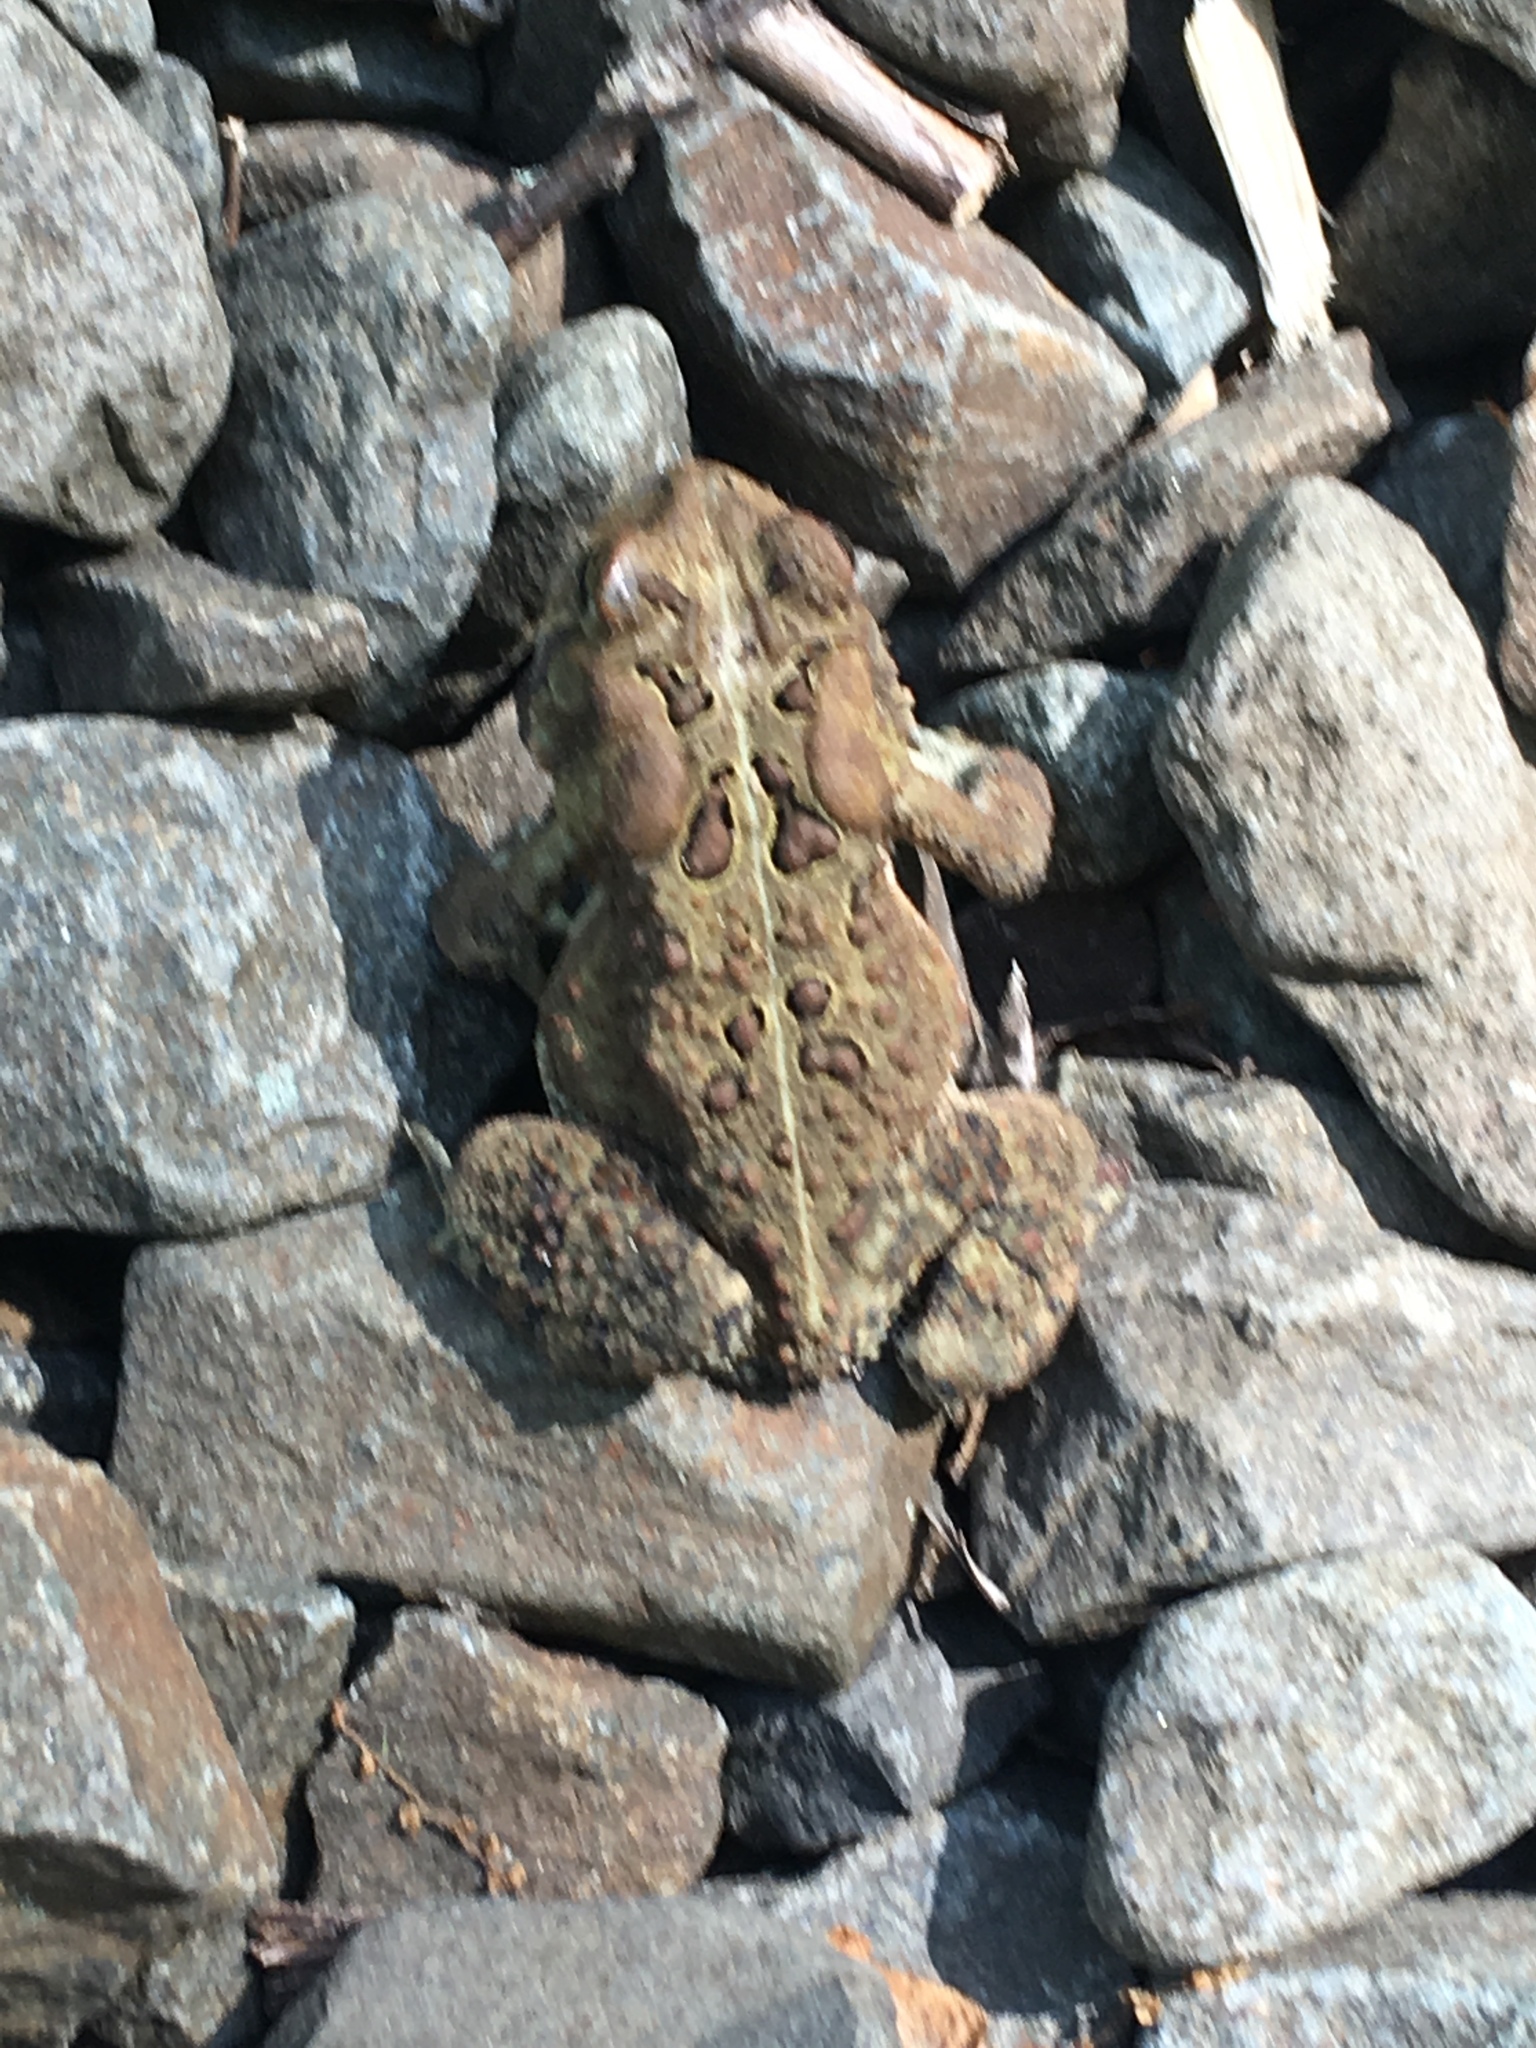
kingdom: Animalia
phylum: Chordata
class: Amphibia
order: Anura
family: Bufonidae
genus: Anaxyrus
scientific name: Anaxyrus americanus
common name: American toad
